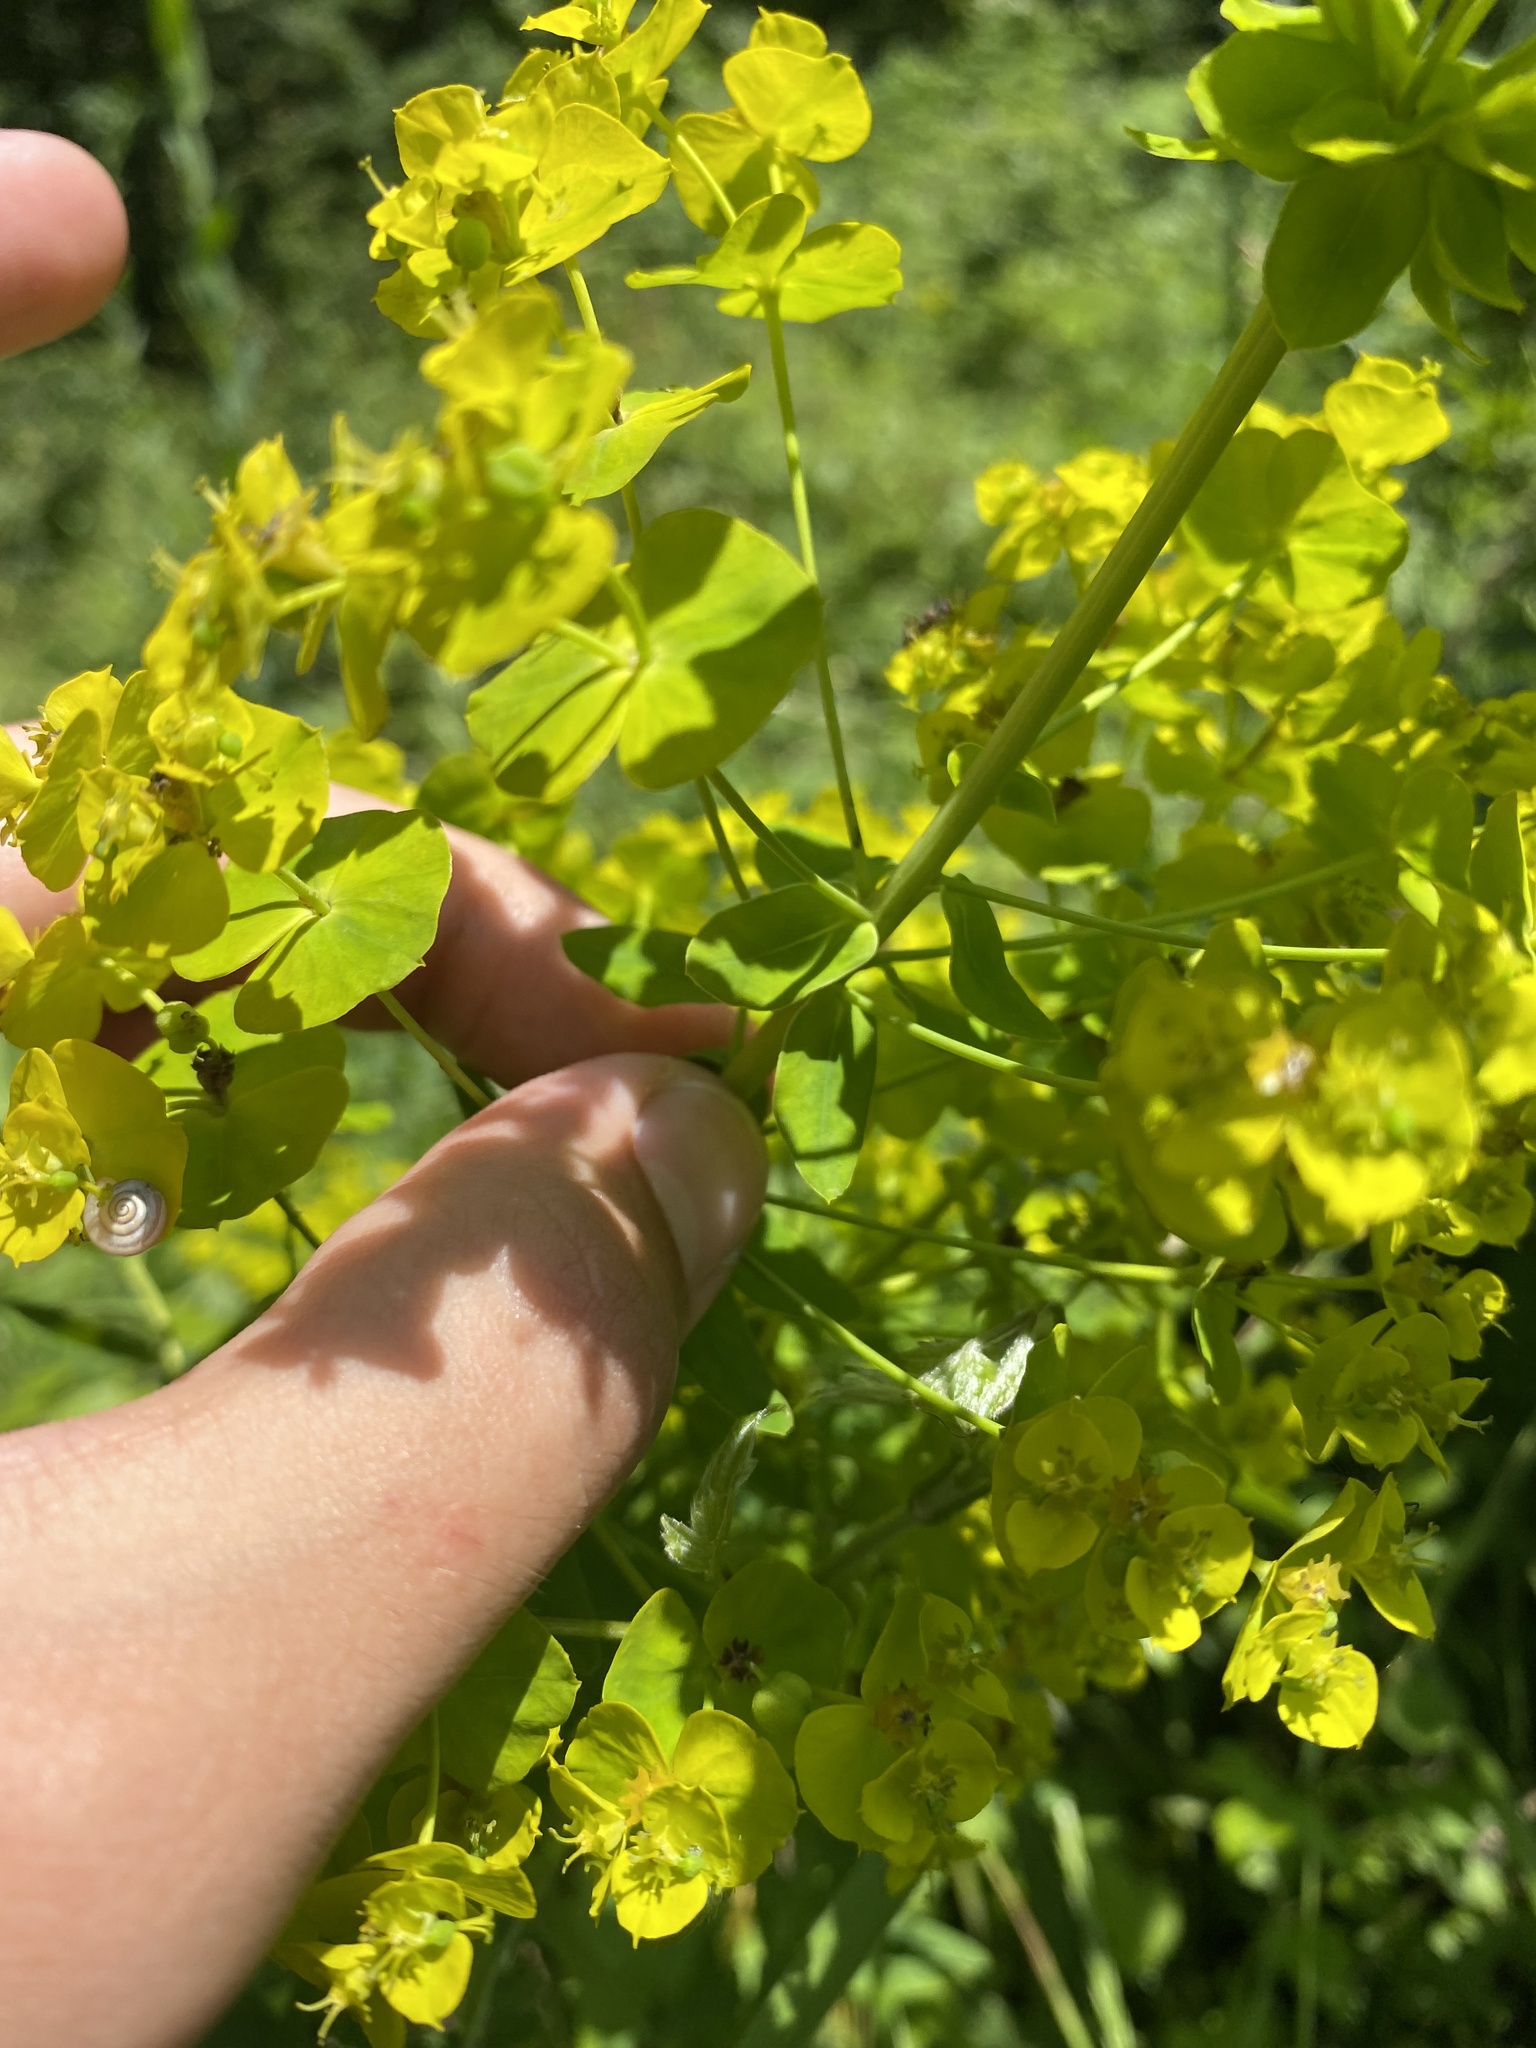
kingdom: Plantae
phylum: Tracheophyta
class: Magnoliopsida
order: Malpighiales
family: Euphorbiaceae
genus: Euphorbia
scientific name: Euphorbia virgata
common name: Leafy spurge
